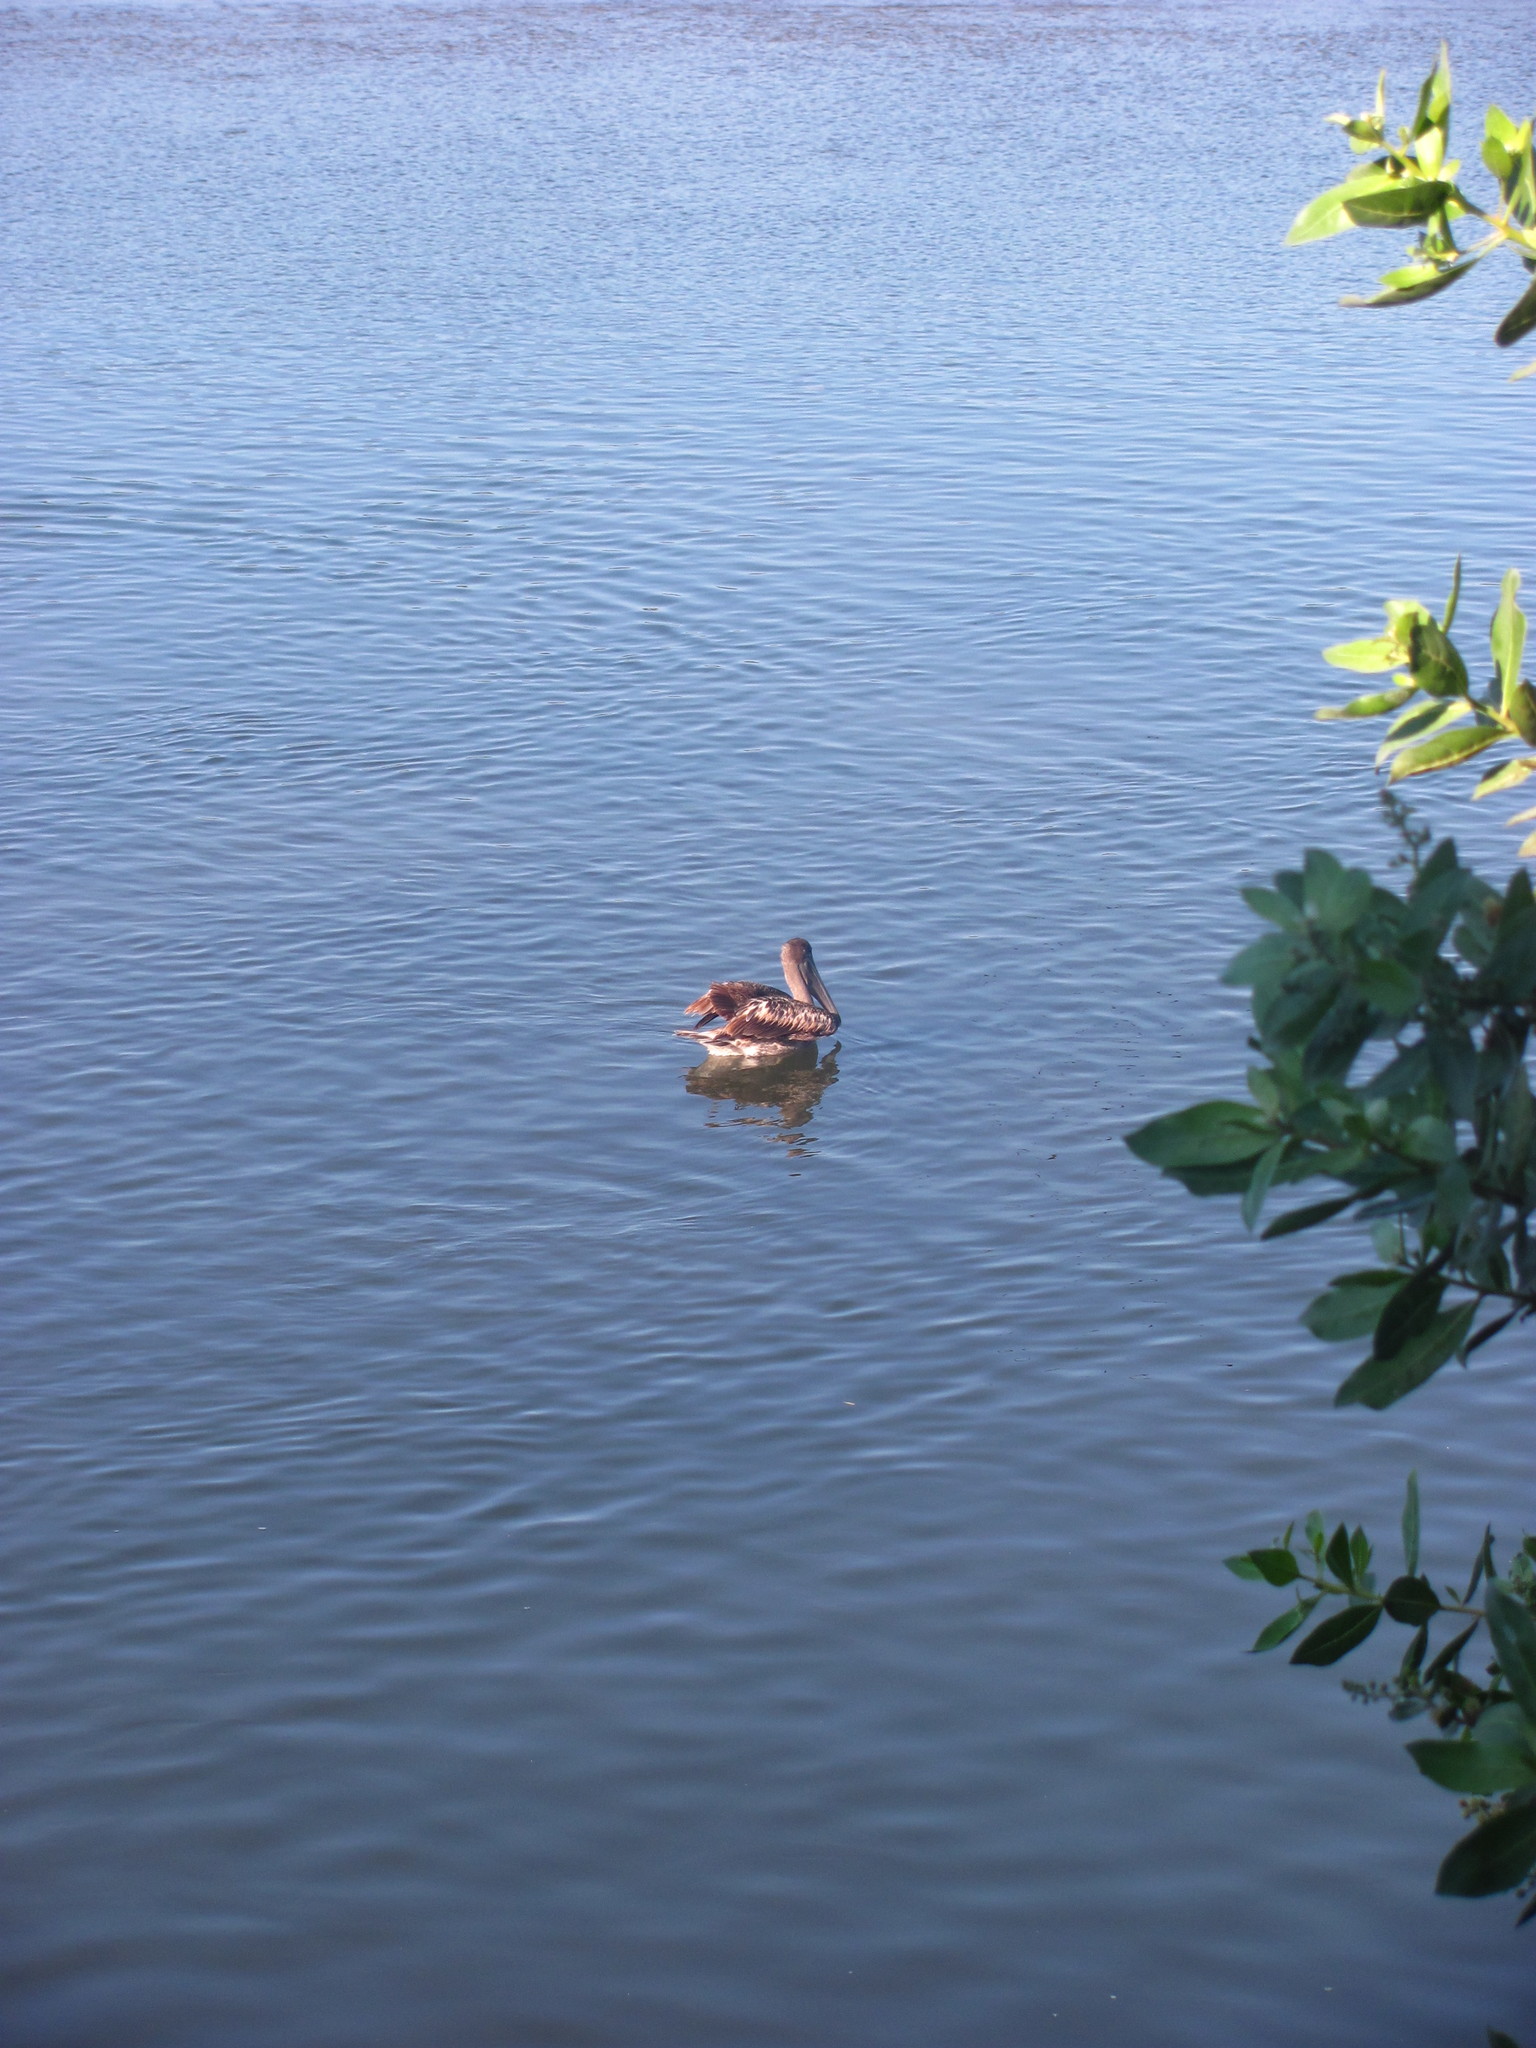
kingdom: Animalia
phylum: Chordata
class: Aves
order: Pelecaniformes
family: Pelecanidae
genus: Pelecanus
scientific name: Pelecanus occidentalis
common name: Brown pelican
